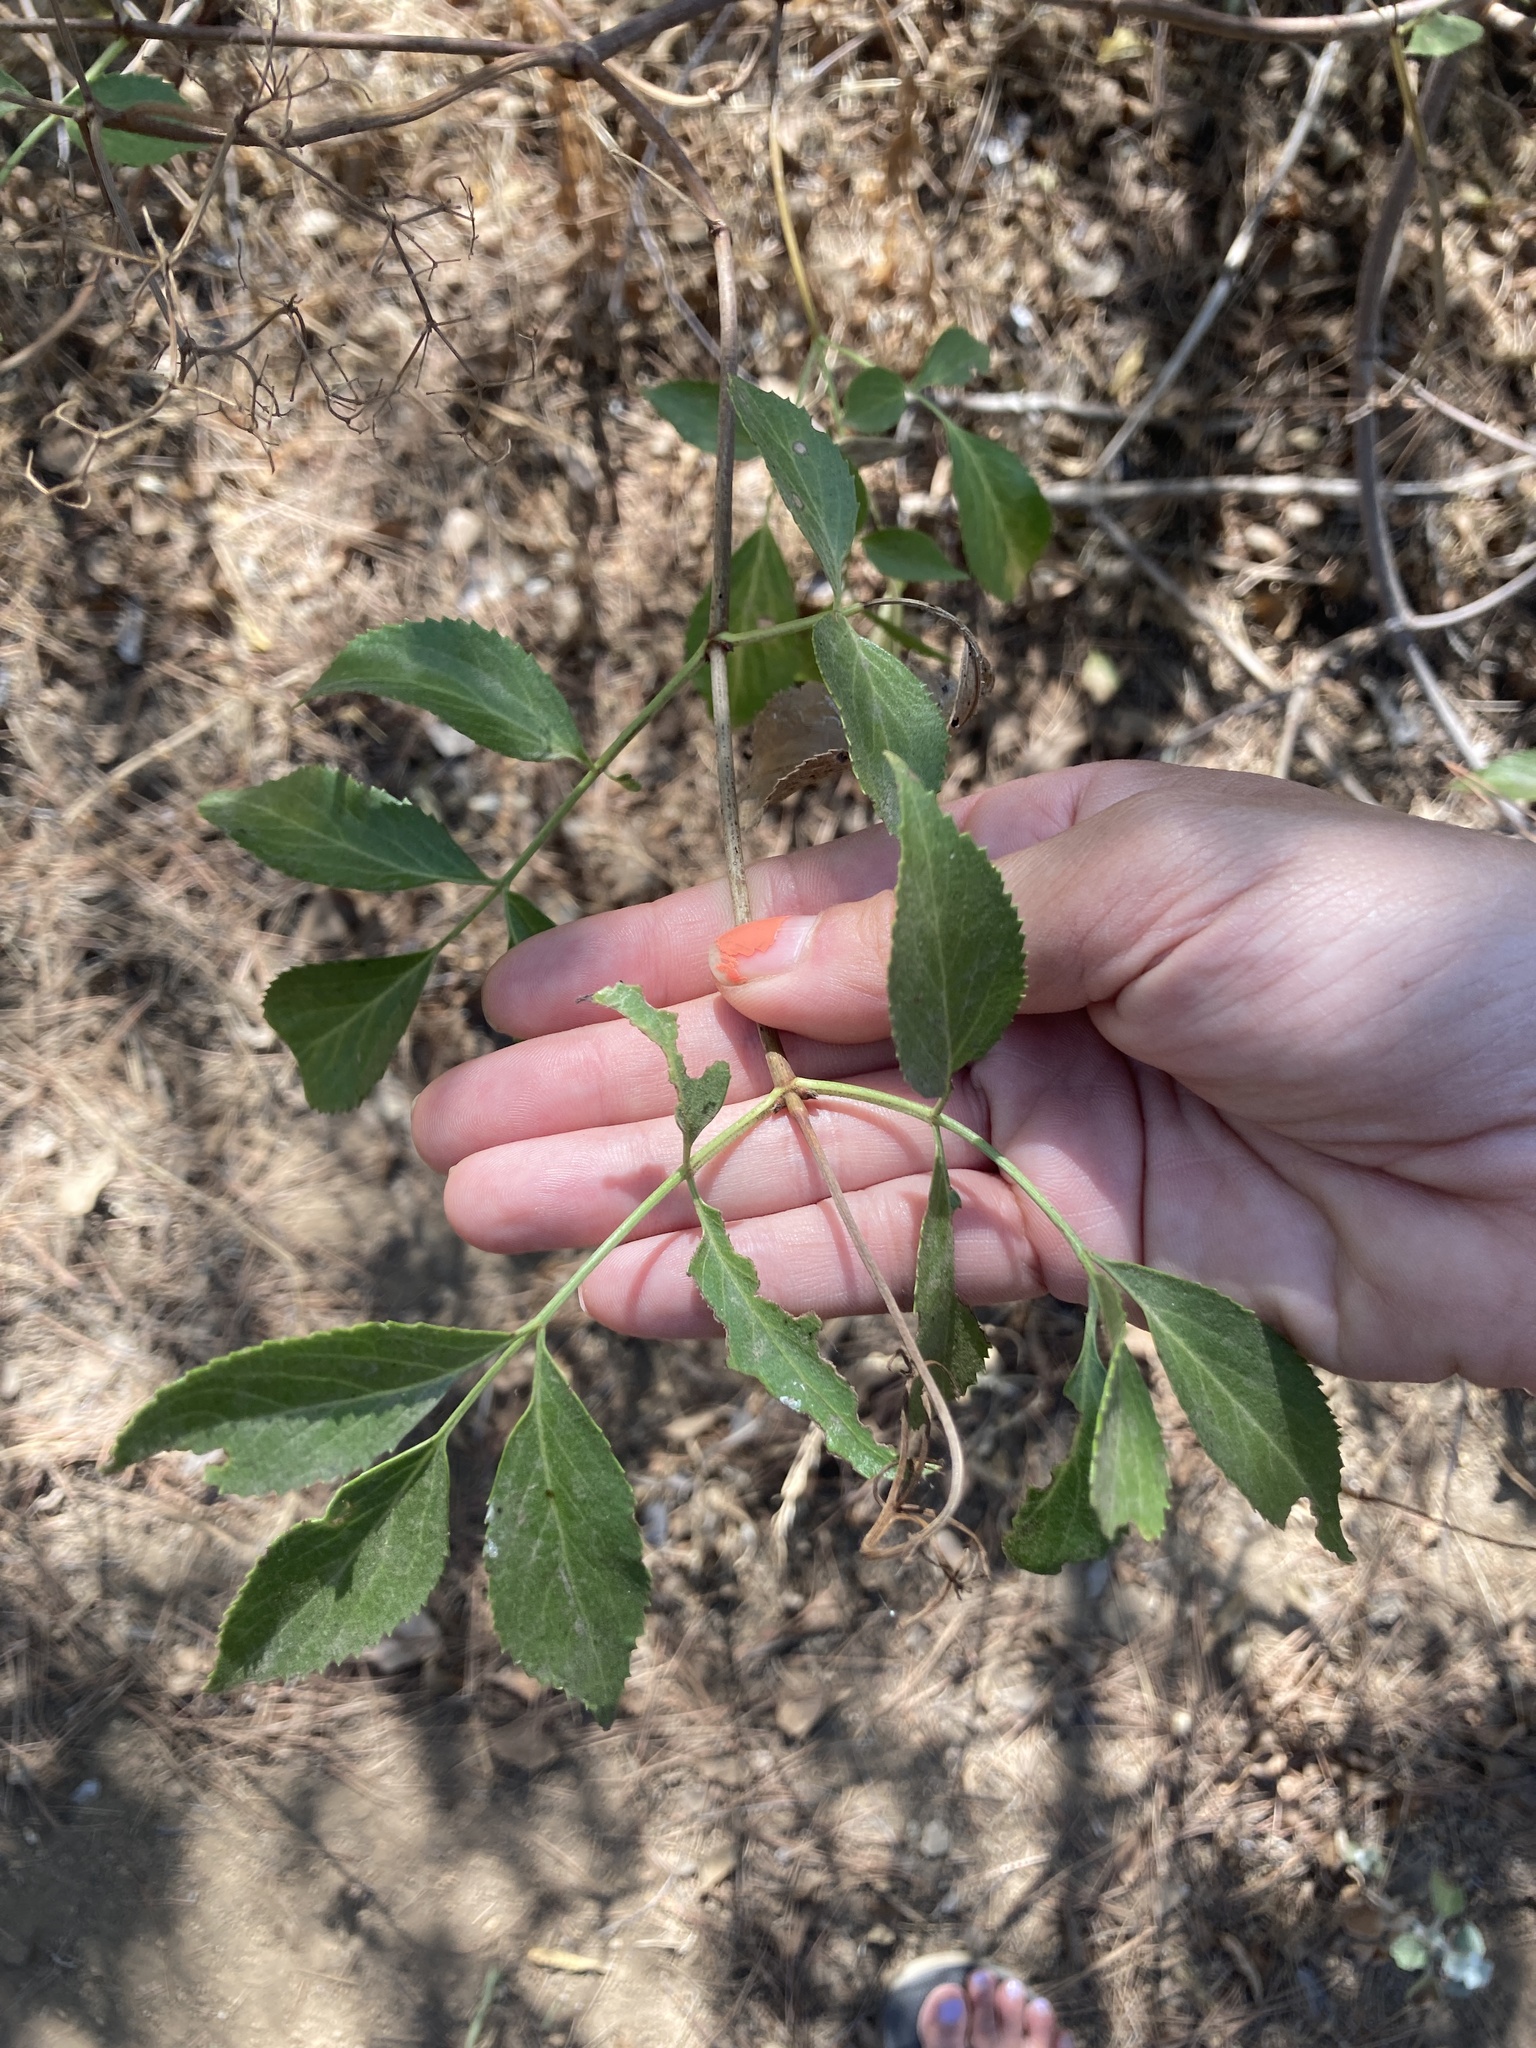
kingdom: Plantae
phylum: Tracheophyta
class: Magnoliopsida
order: Dipsacales
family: Viburnaceae
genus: Sambucus
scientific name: Sambucus cerulea
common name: Blue elder
